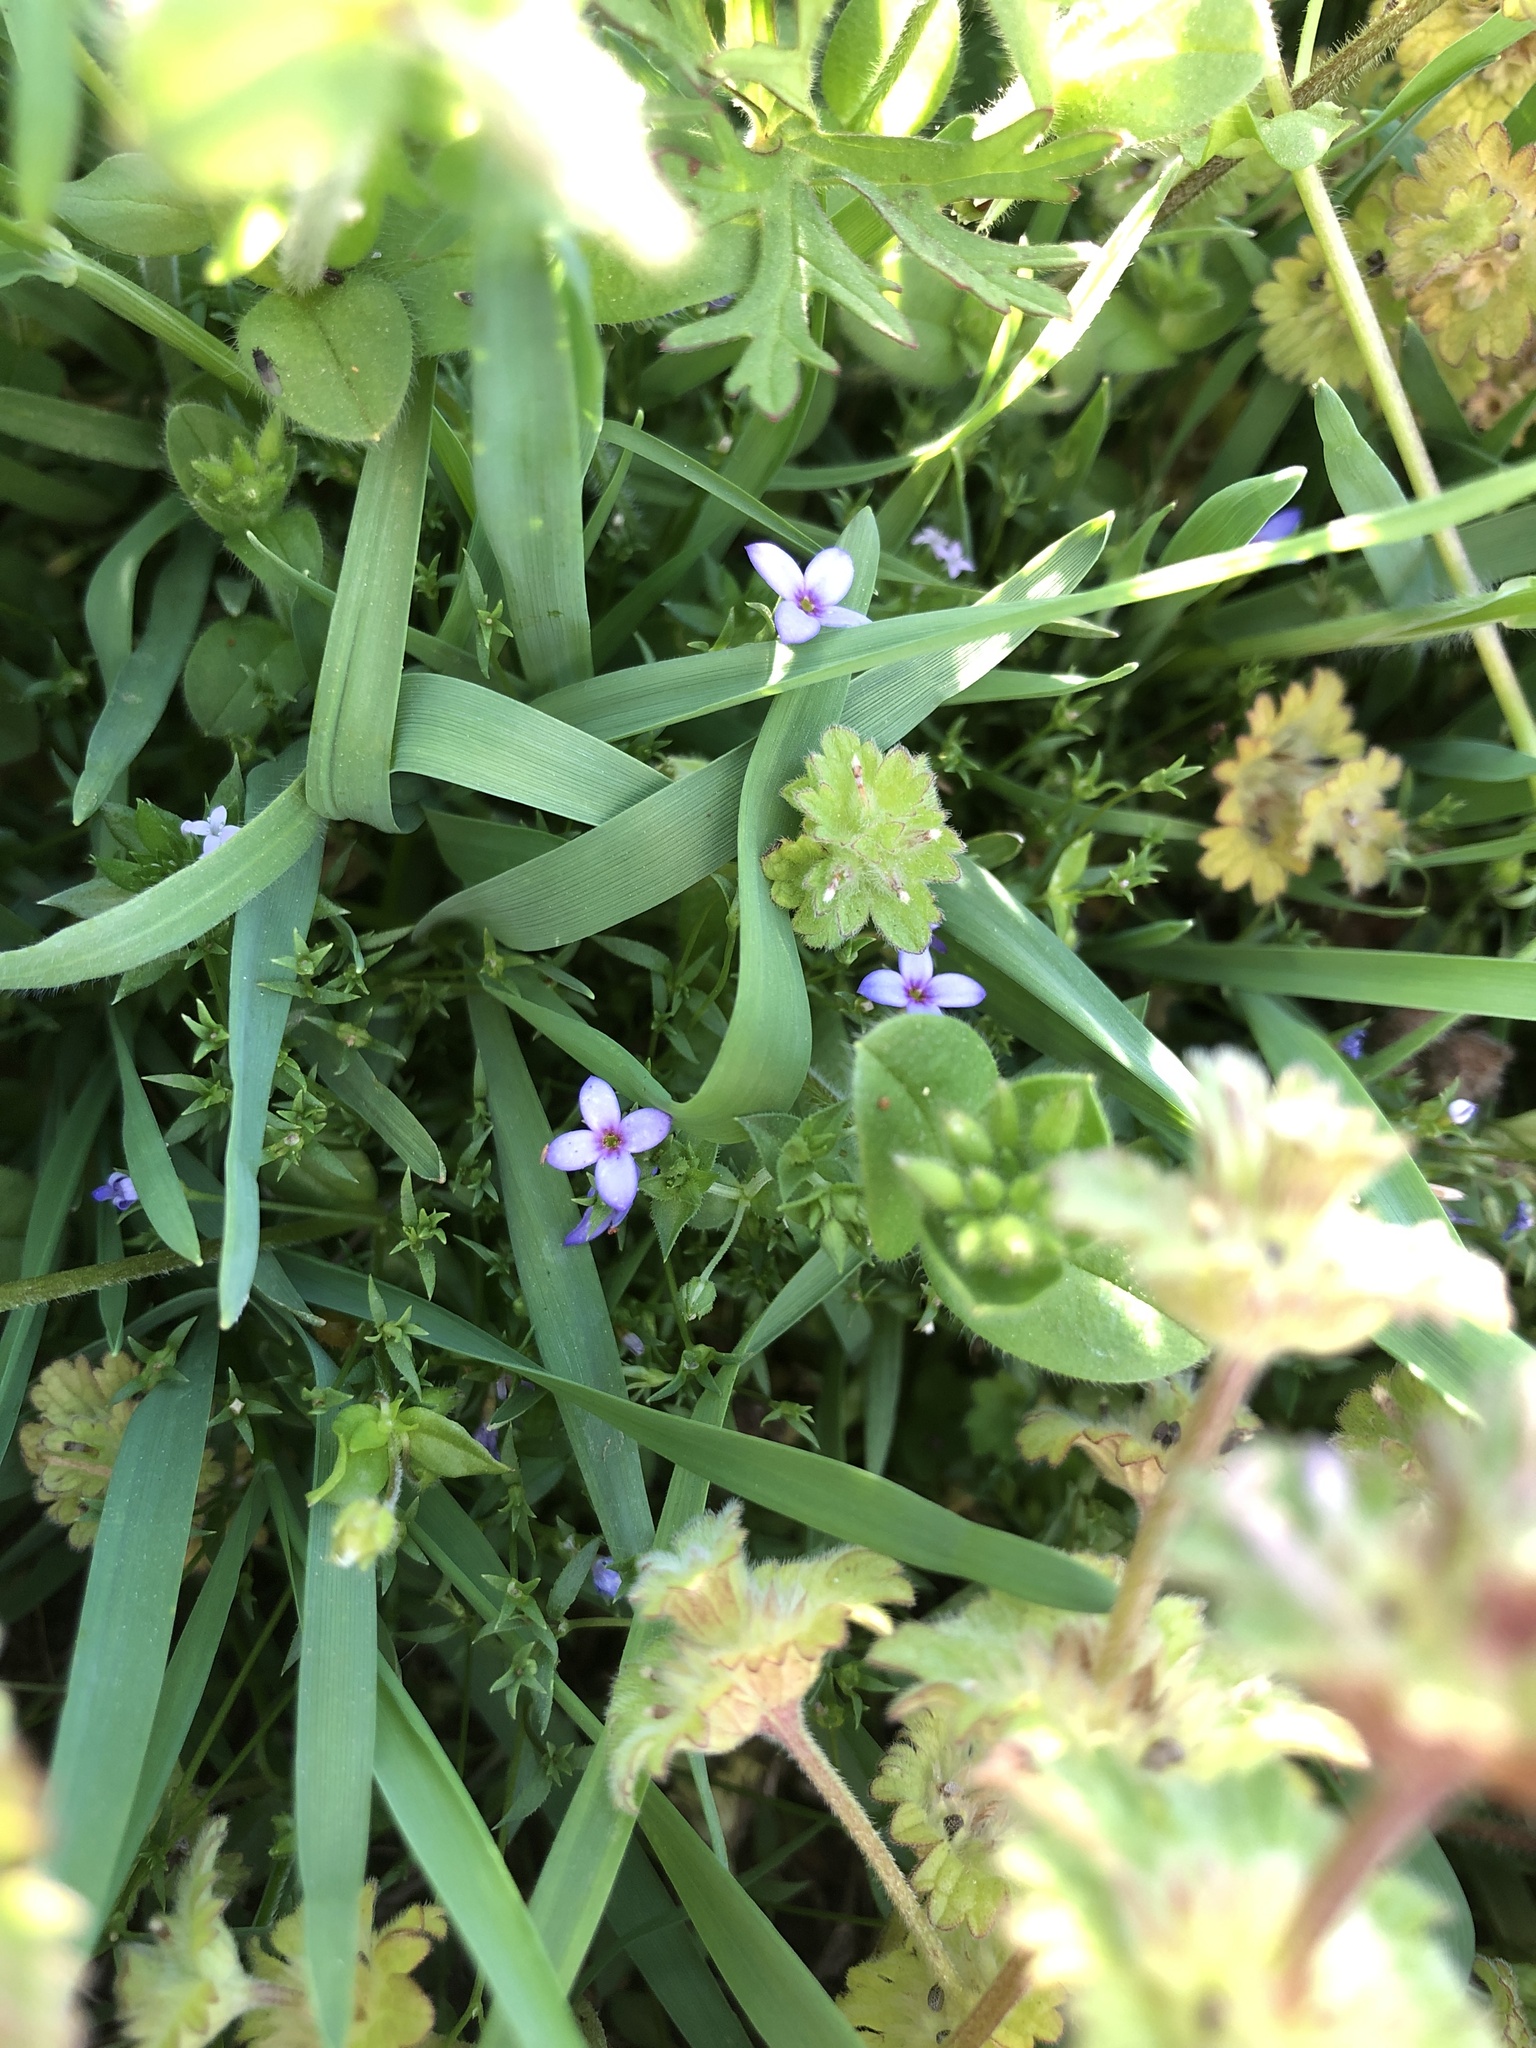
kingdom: Plantae
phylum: Tracheophyta
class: Magnoliopsida
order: Gentianales
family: Rubiaceae
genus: Houstonia
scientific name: Houstonia pusilla
